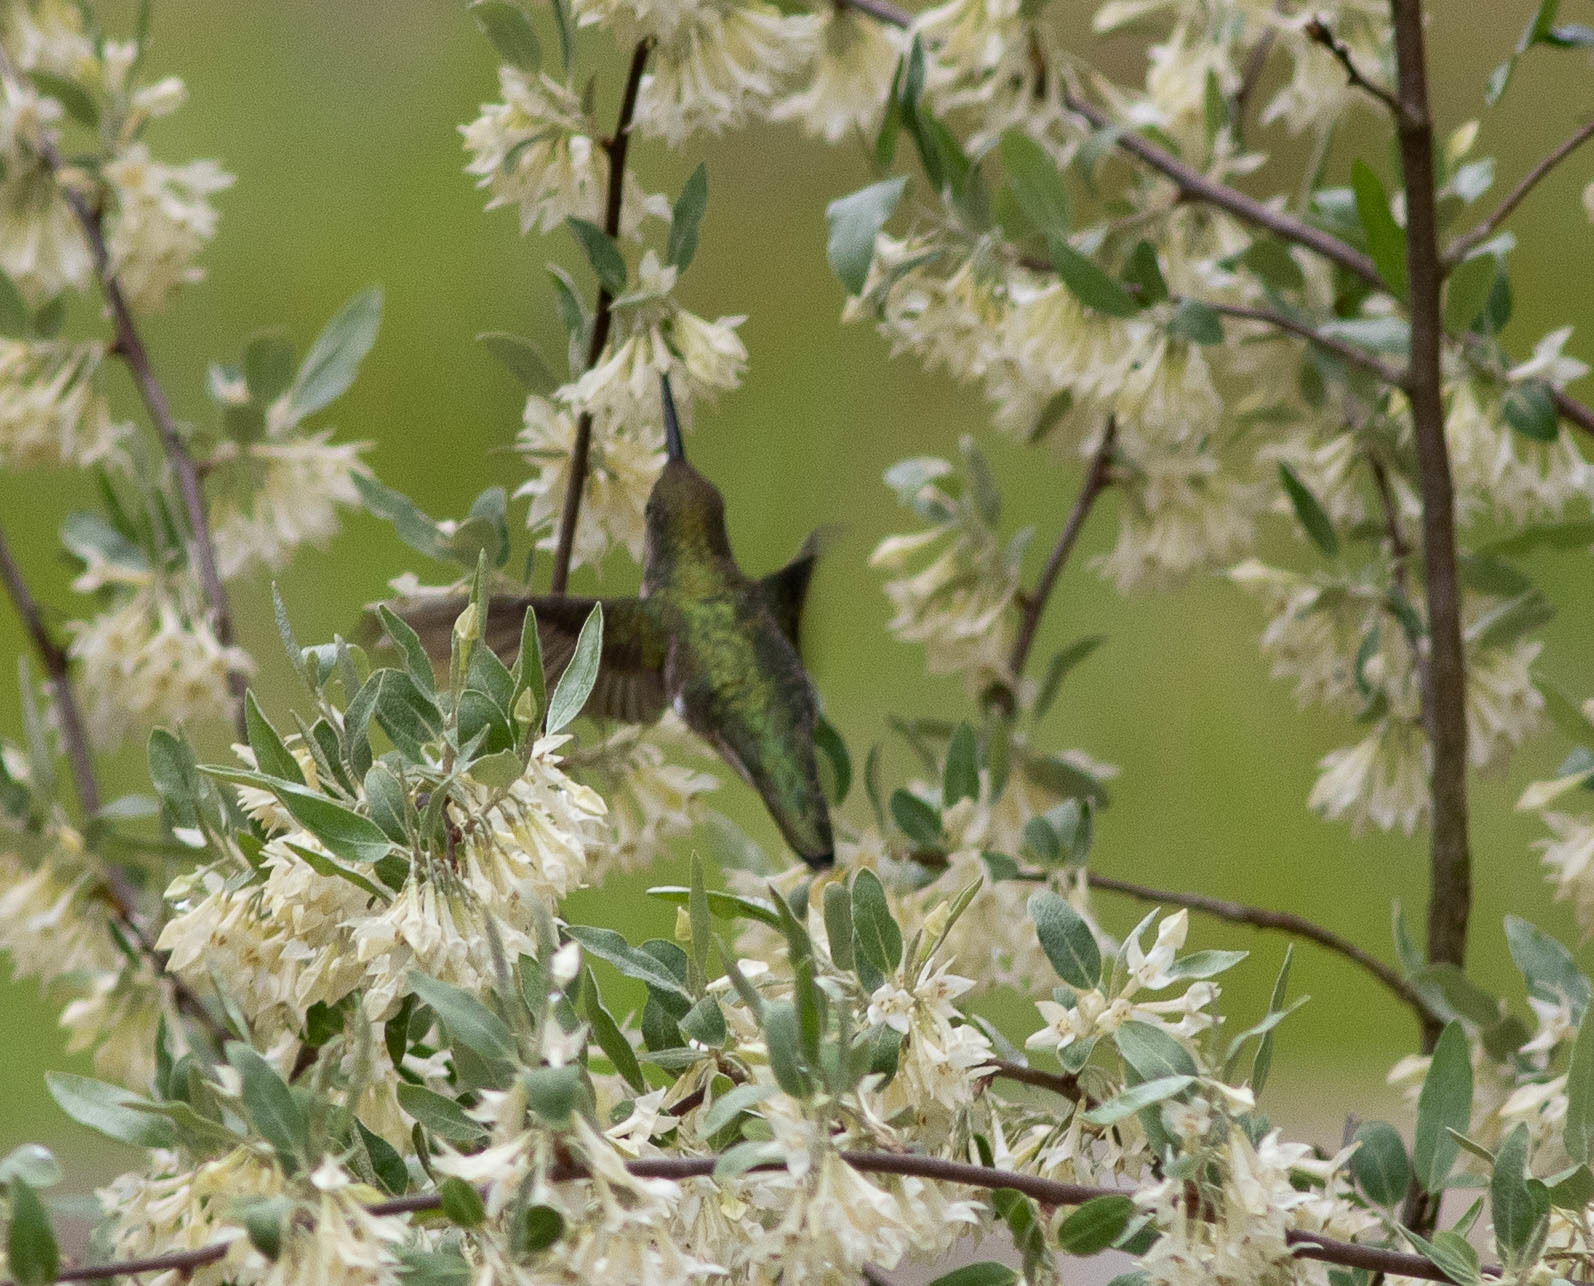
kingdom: Animalia
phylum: Chordata
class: Aves
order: Apodiformes
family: Trochilidae
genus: Archilochus
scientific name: Archilochus colubris
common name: Ruby-throated hummingbird
